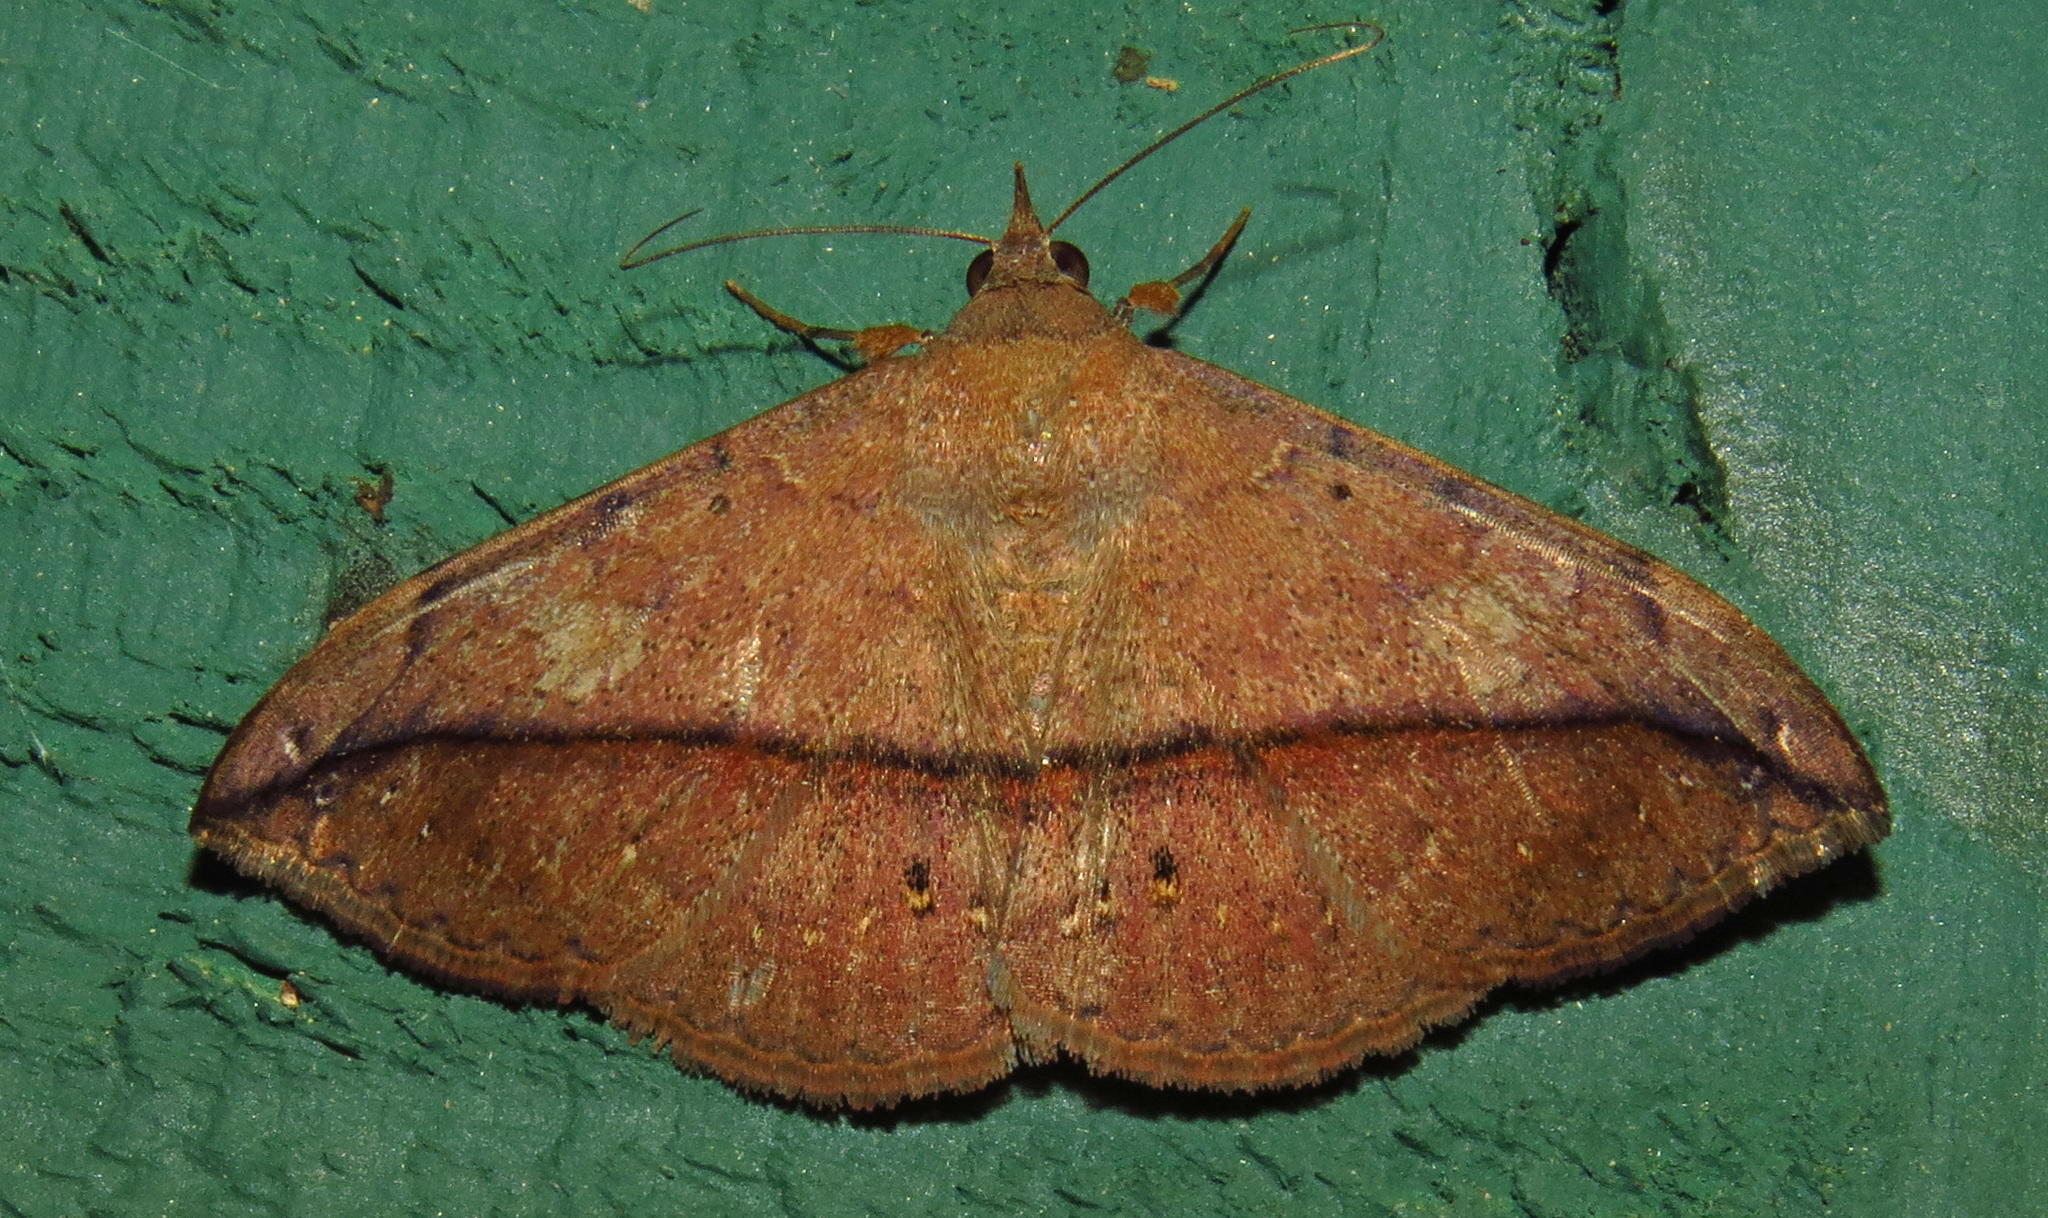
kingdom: Animalia
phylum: Arthropoda
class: Insecta
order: Lepidoptera
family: Erebidae
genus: Anticarsia
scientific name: Anticarsia gemmatalis
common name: Cutworm moth
